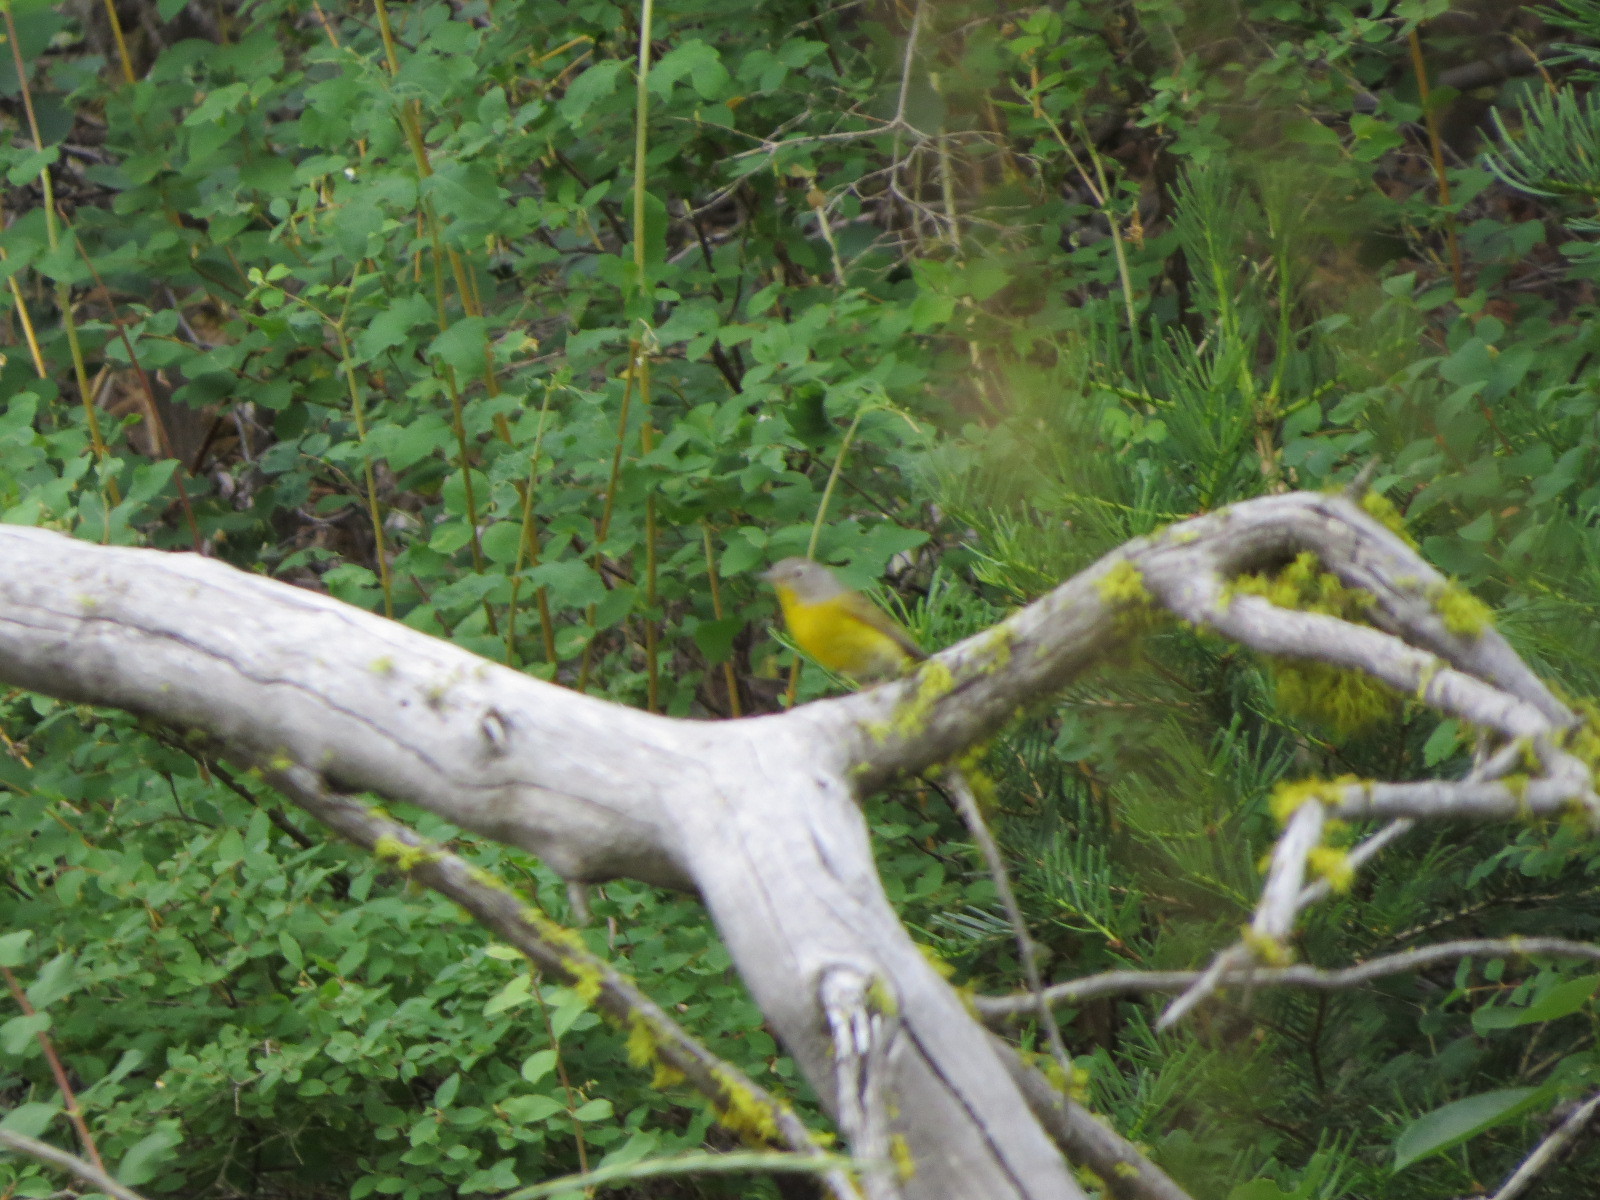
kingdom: Animalia
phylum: Chordata
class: Aves
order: Passeriformes
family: Parulidae
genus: Leiothlypis
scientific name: Leiothlypis ruficapilla
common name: Nashville warbler
